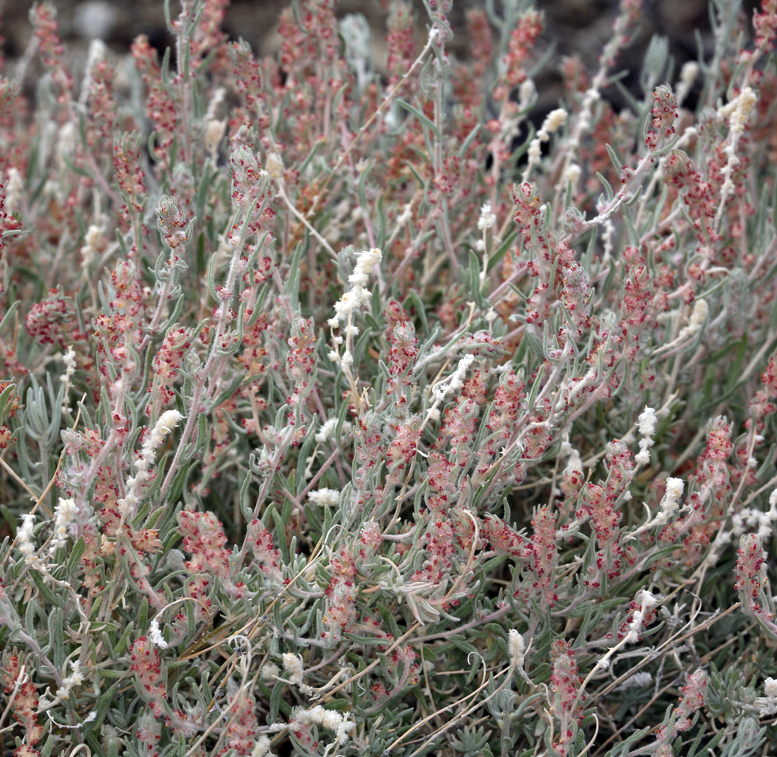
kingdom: Plantae
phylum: Tracheophyta
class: Magnoliopsida
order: Caryophyllales
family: Amaranthaceae
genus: Krascheninnikovia
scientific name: Krascheninnikovia lanata
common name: Winterfat
